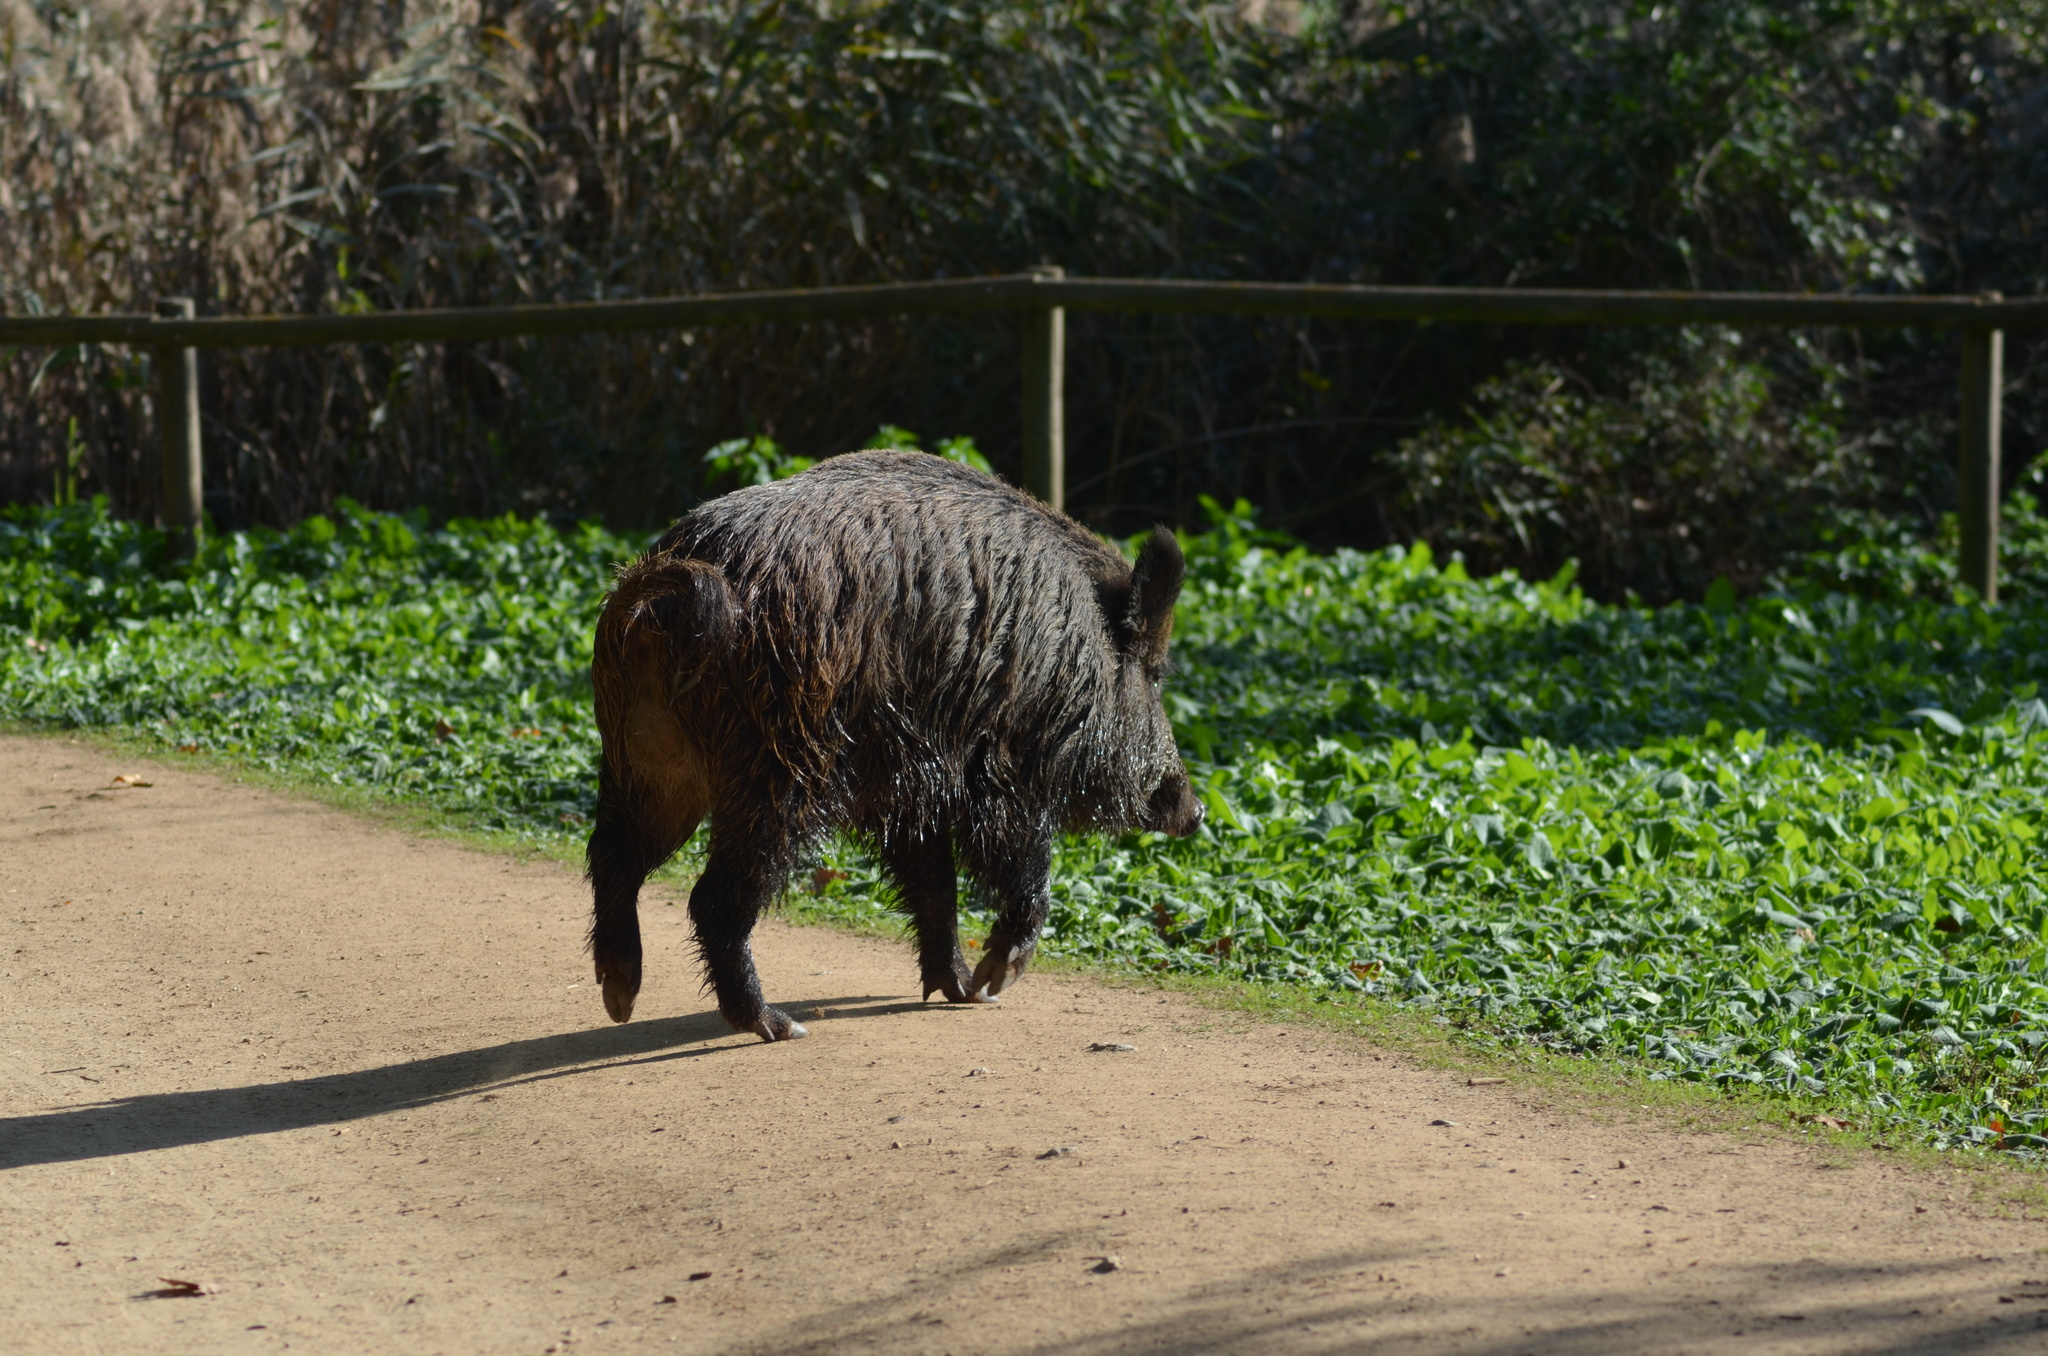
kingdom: Animalia
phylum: Chordata
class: Mammalia
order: Artiodactyla
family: Suidae
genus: Sus
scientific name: Sus scrofa
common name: Wild boar
